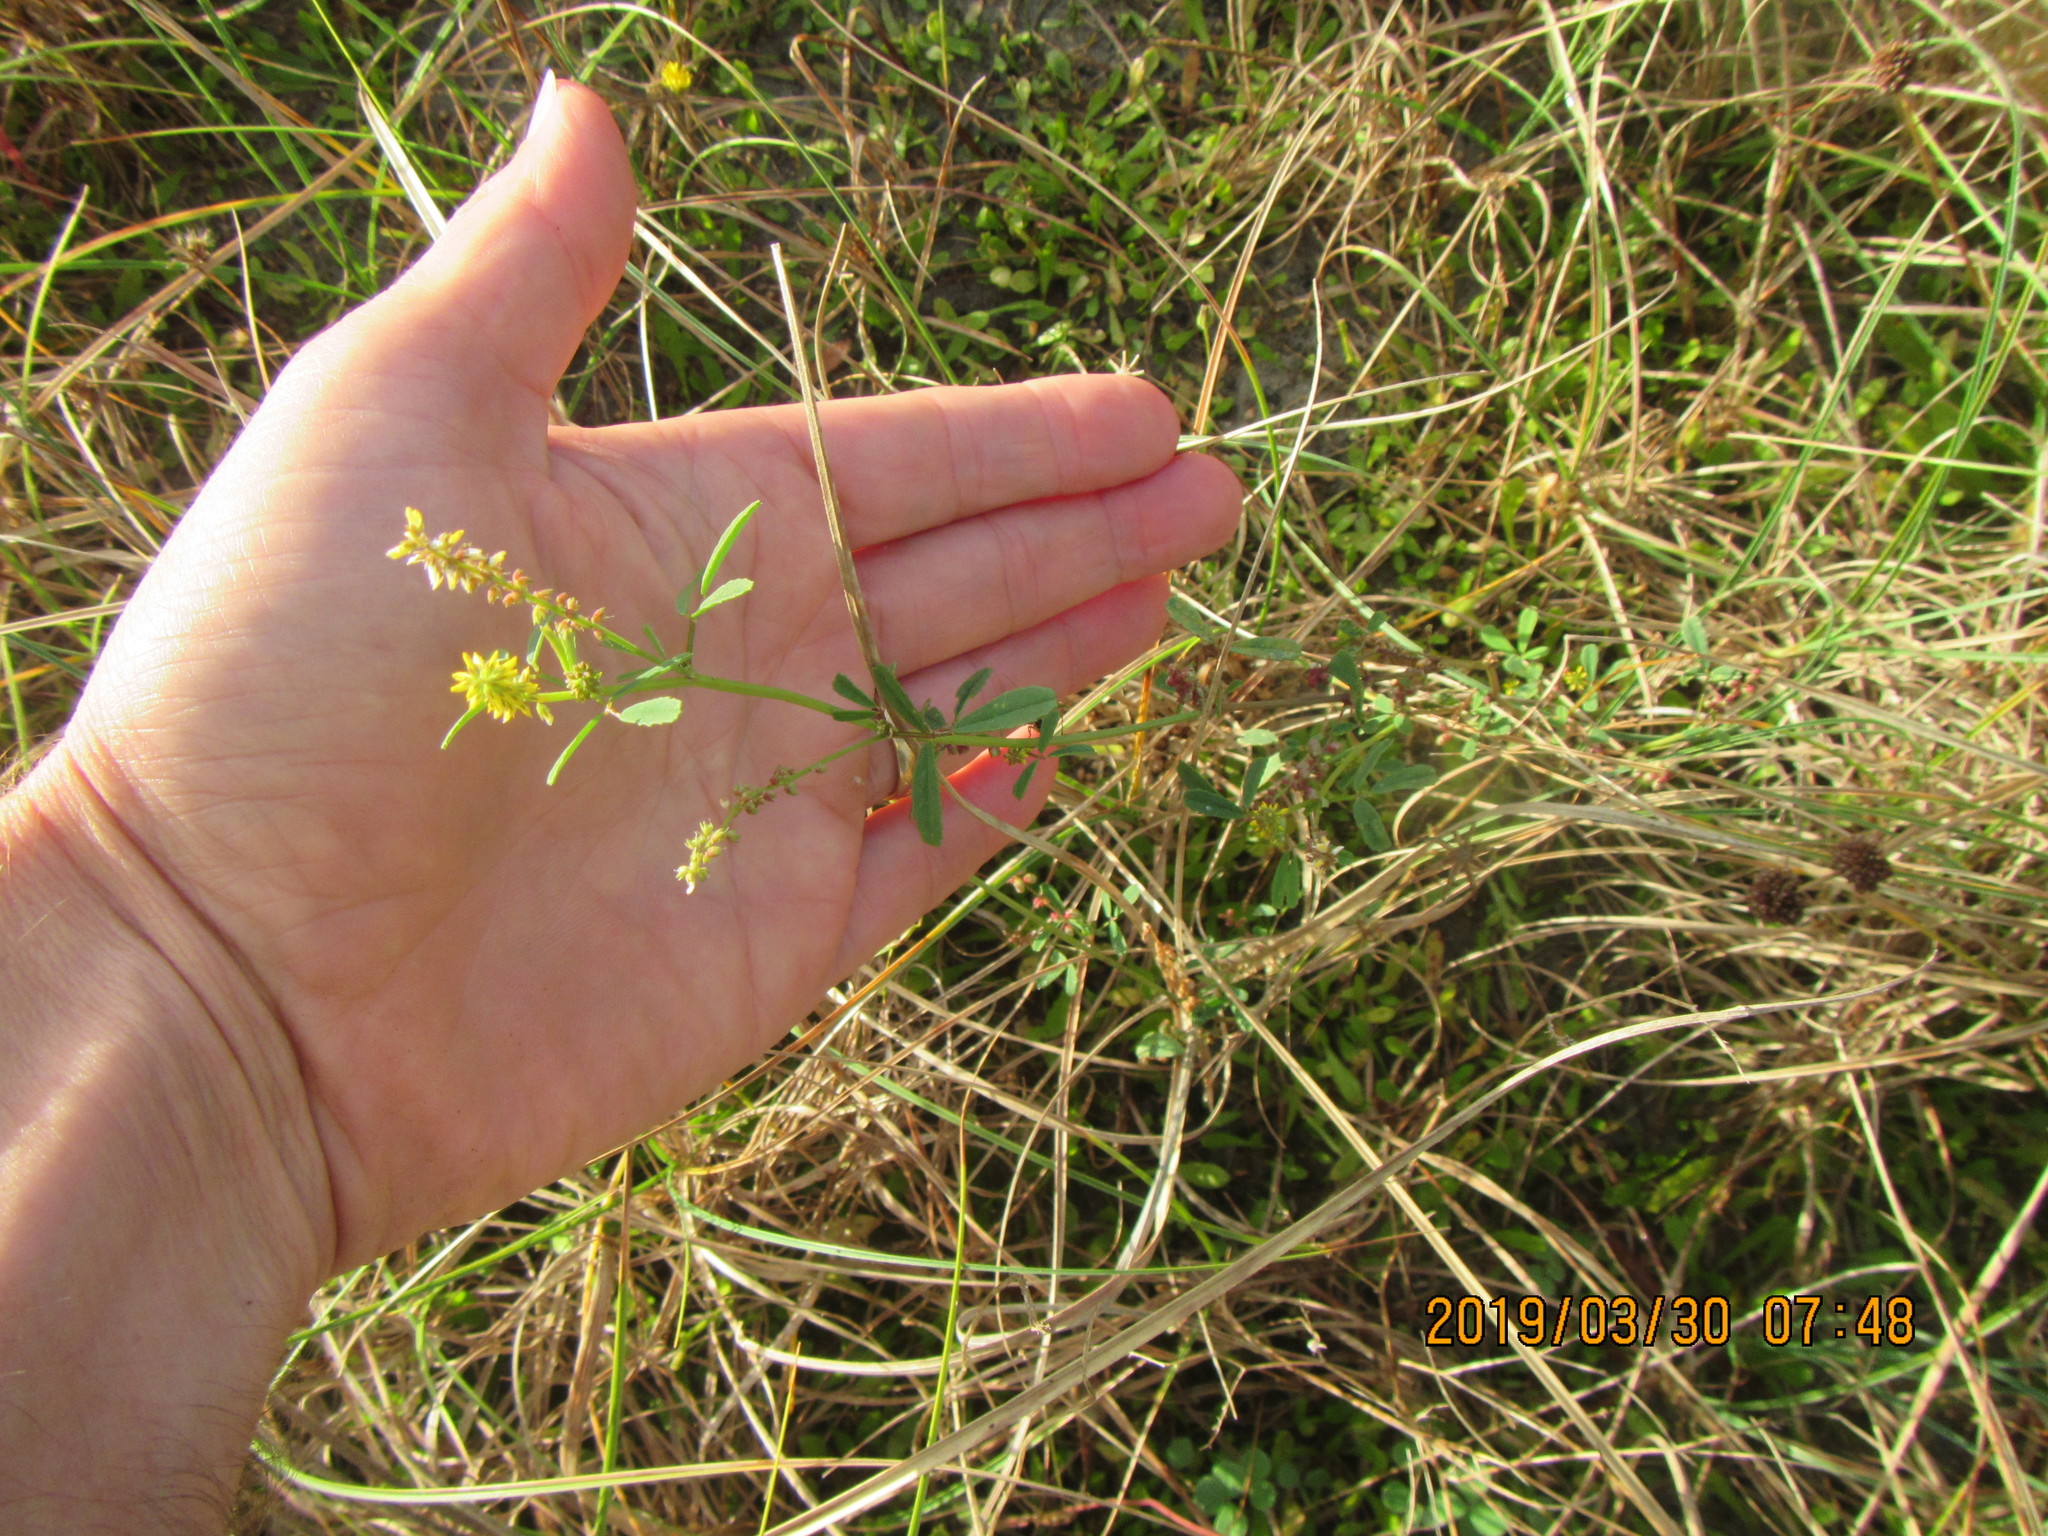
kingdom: Plantae
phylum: Tracheophyta
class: Magnoliopsida
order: Fabales
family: Fabaceae
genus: Melilotus
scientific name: Melilotus indicus
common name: Small melilot
